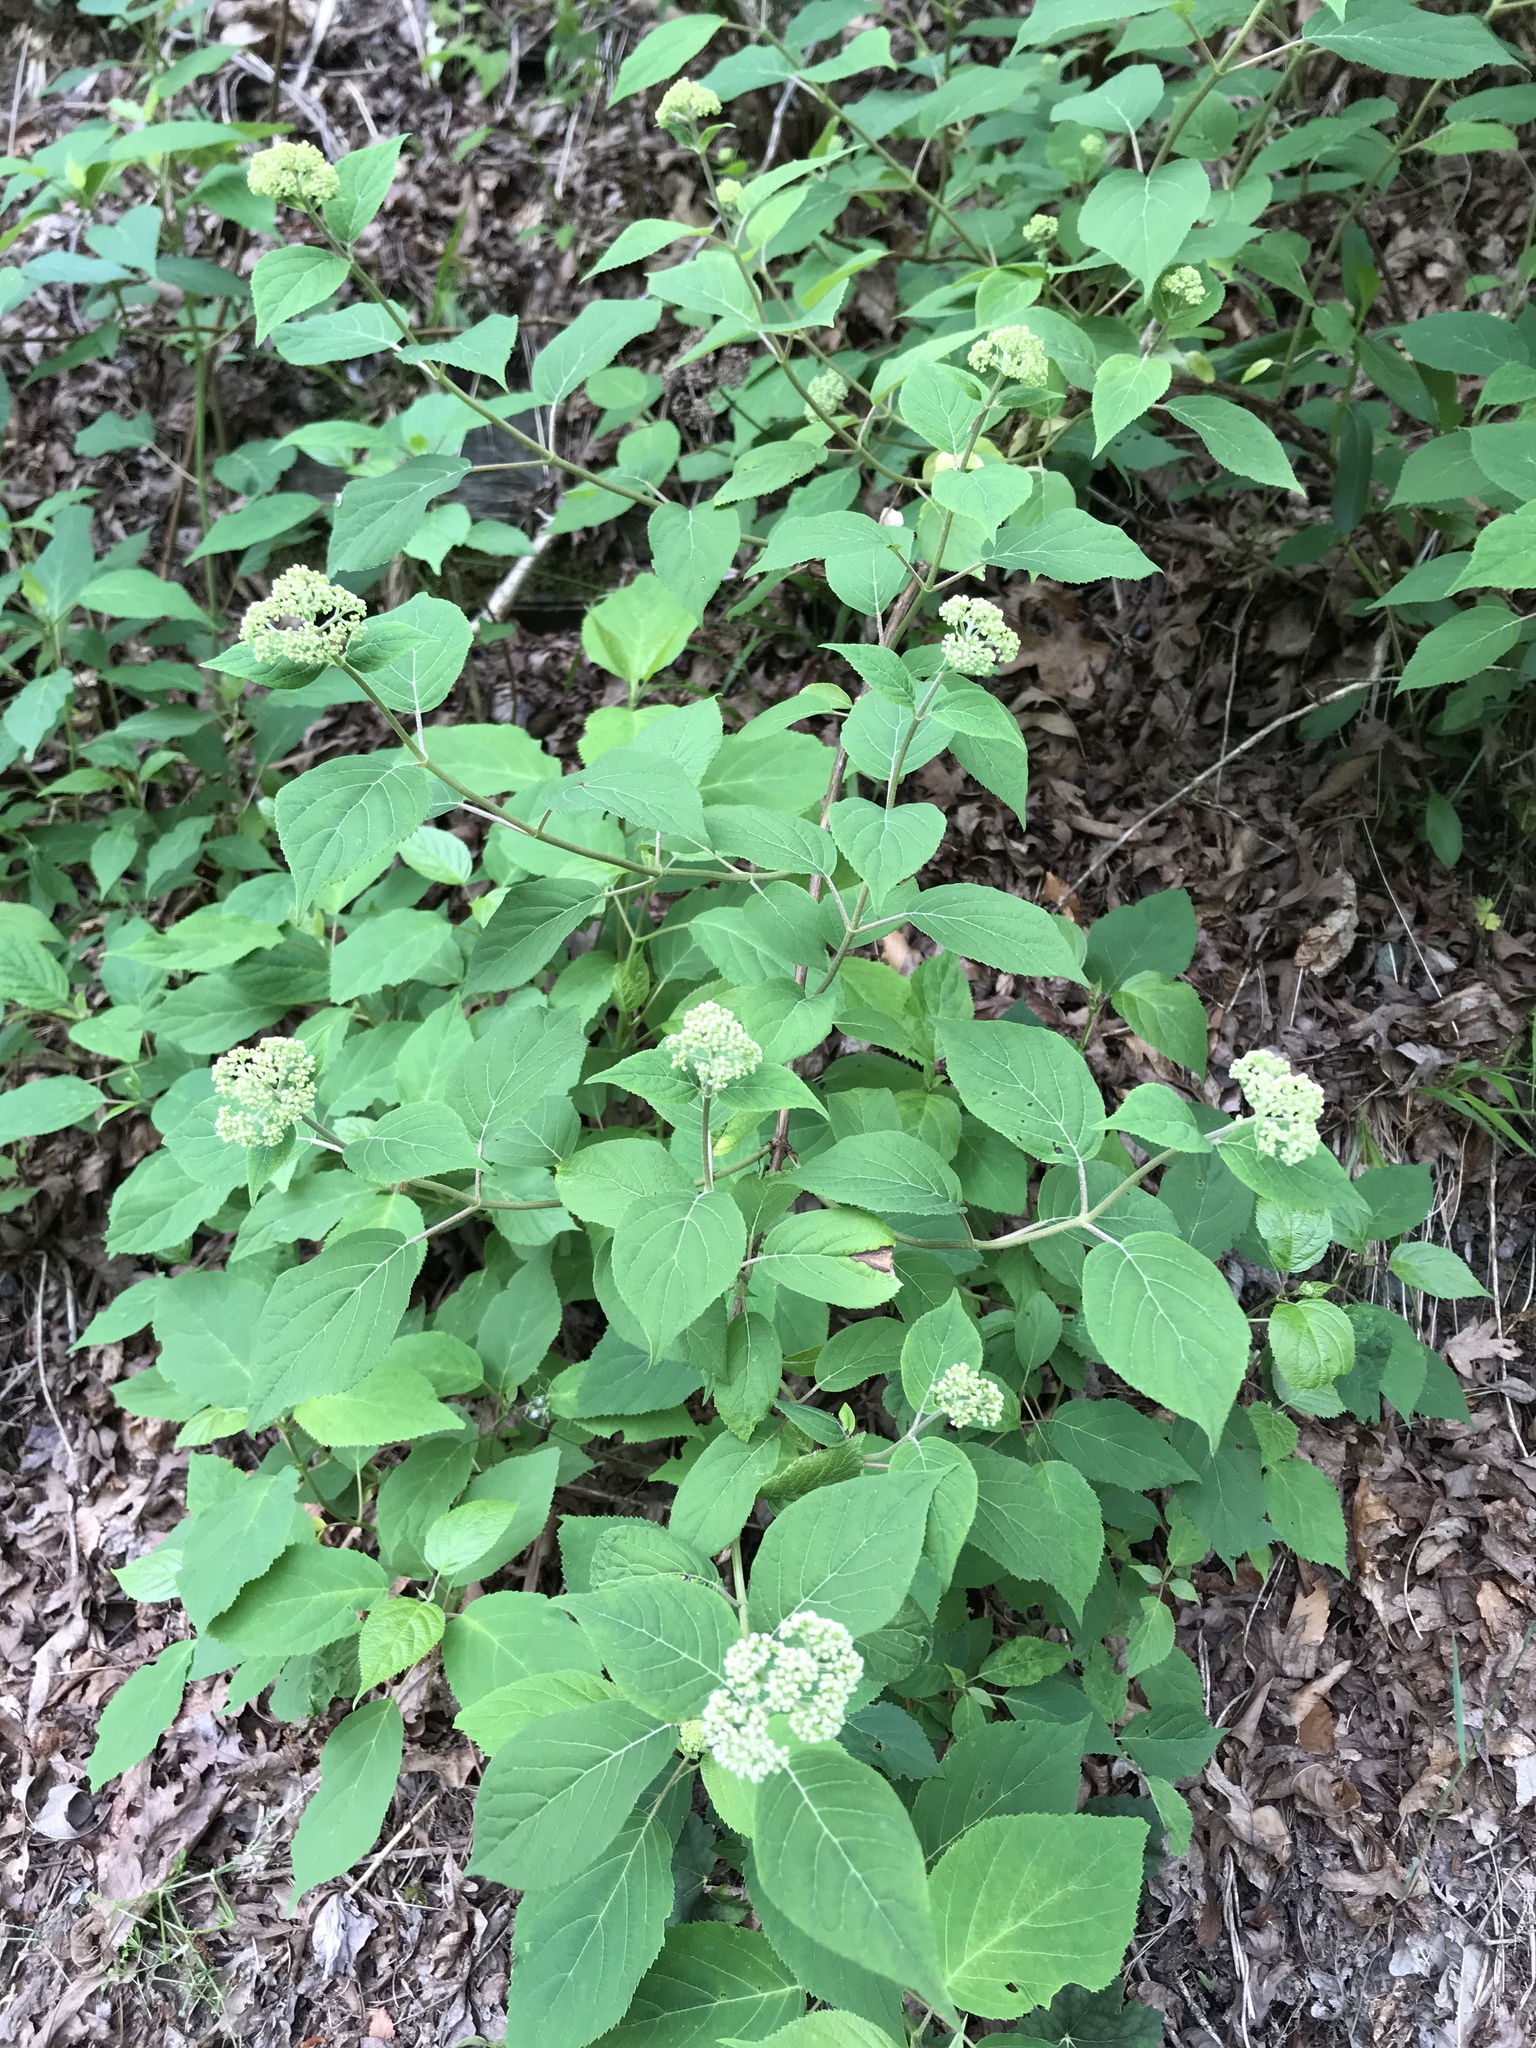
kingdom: Plantae
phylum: Tracheophyta
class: Magnoliopsida
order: Cornales
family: Hydrangeaceae
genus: Hydrangea
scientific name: Hydrangea arborescens
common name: Sevenbark
